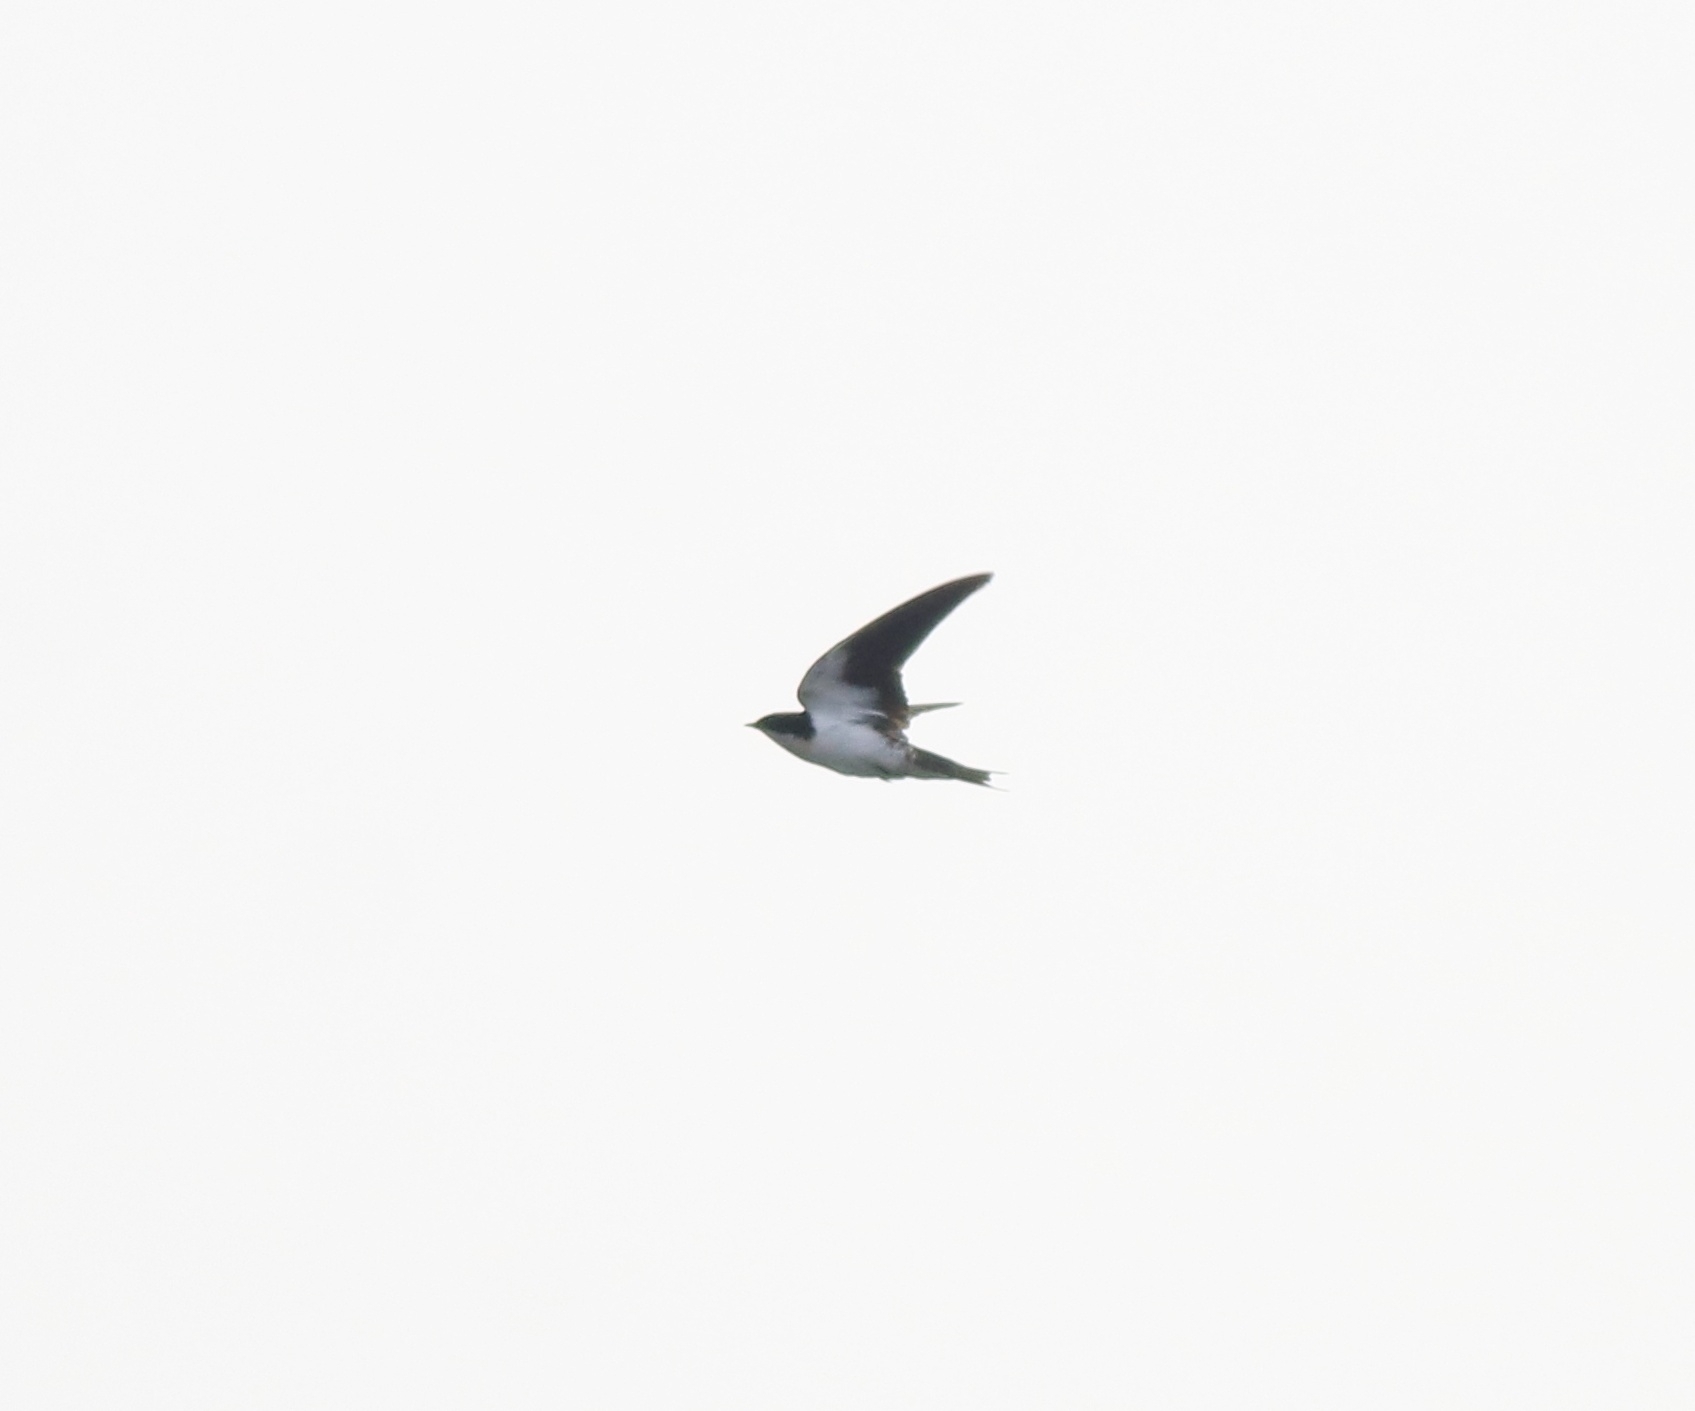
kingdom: Animalia
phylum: Chordata
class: Aves
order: Passeriformes
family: Hirundinidae
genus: Hirundo
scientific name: Hirundo smithii
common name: Wire-tailed swallow
